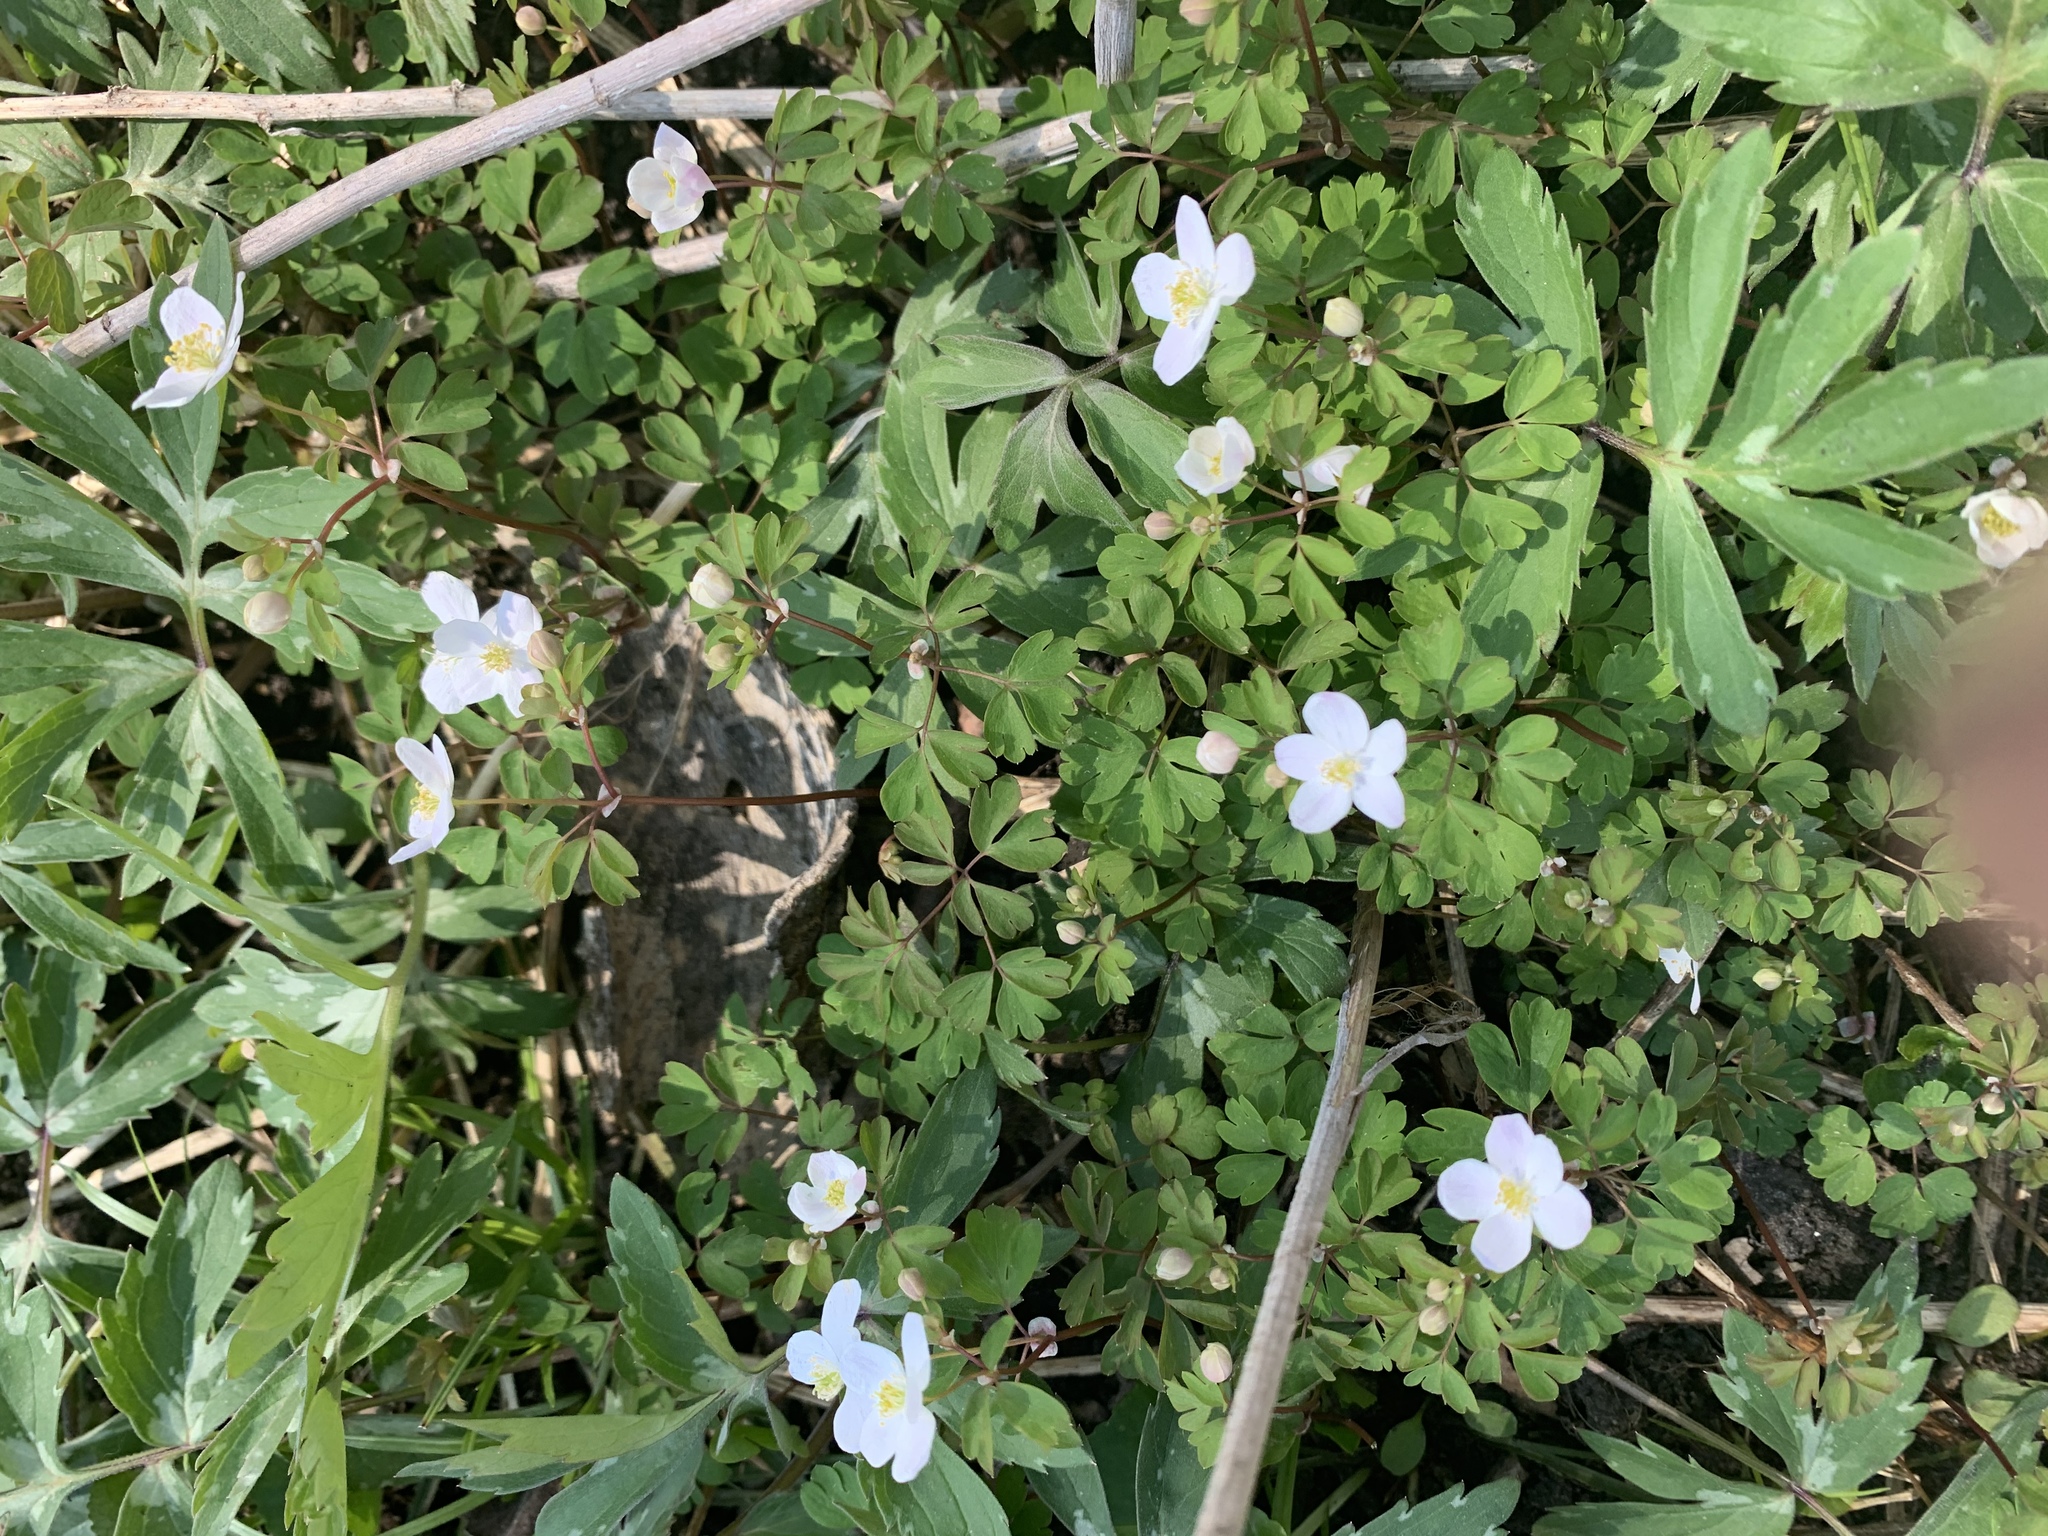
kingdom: Plantae
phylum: Tracheophyta
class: Magnoliopsida
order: Ranunculales
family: Ranunculaceae
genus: Enemion
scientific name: Enemion biternatum
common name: Eastern false rue-anemone
